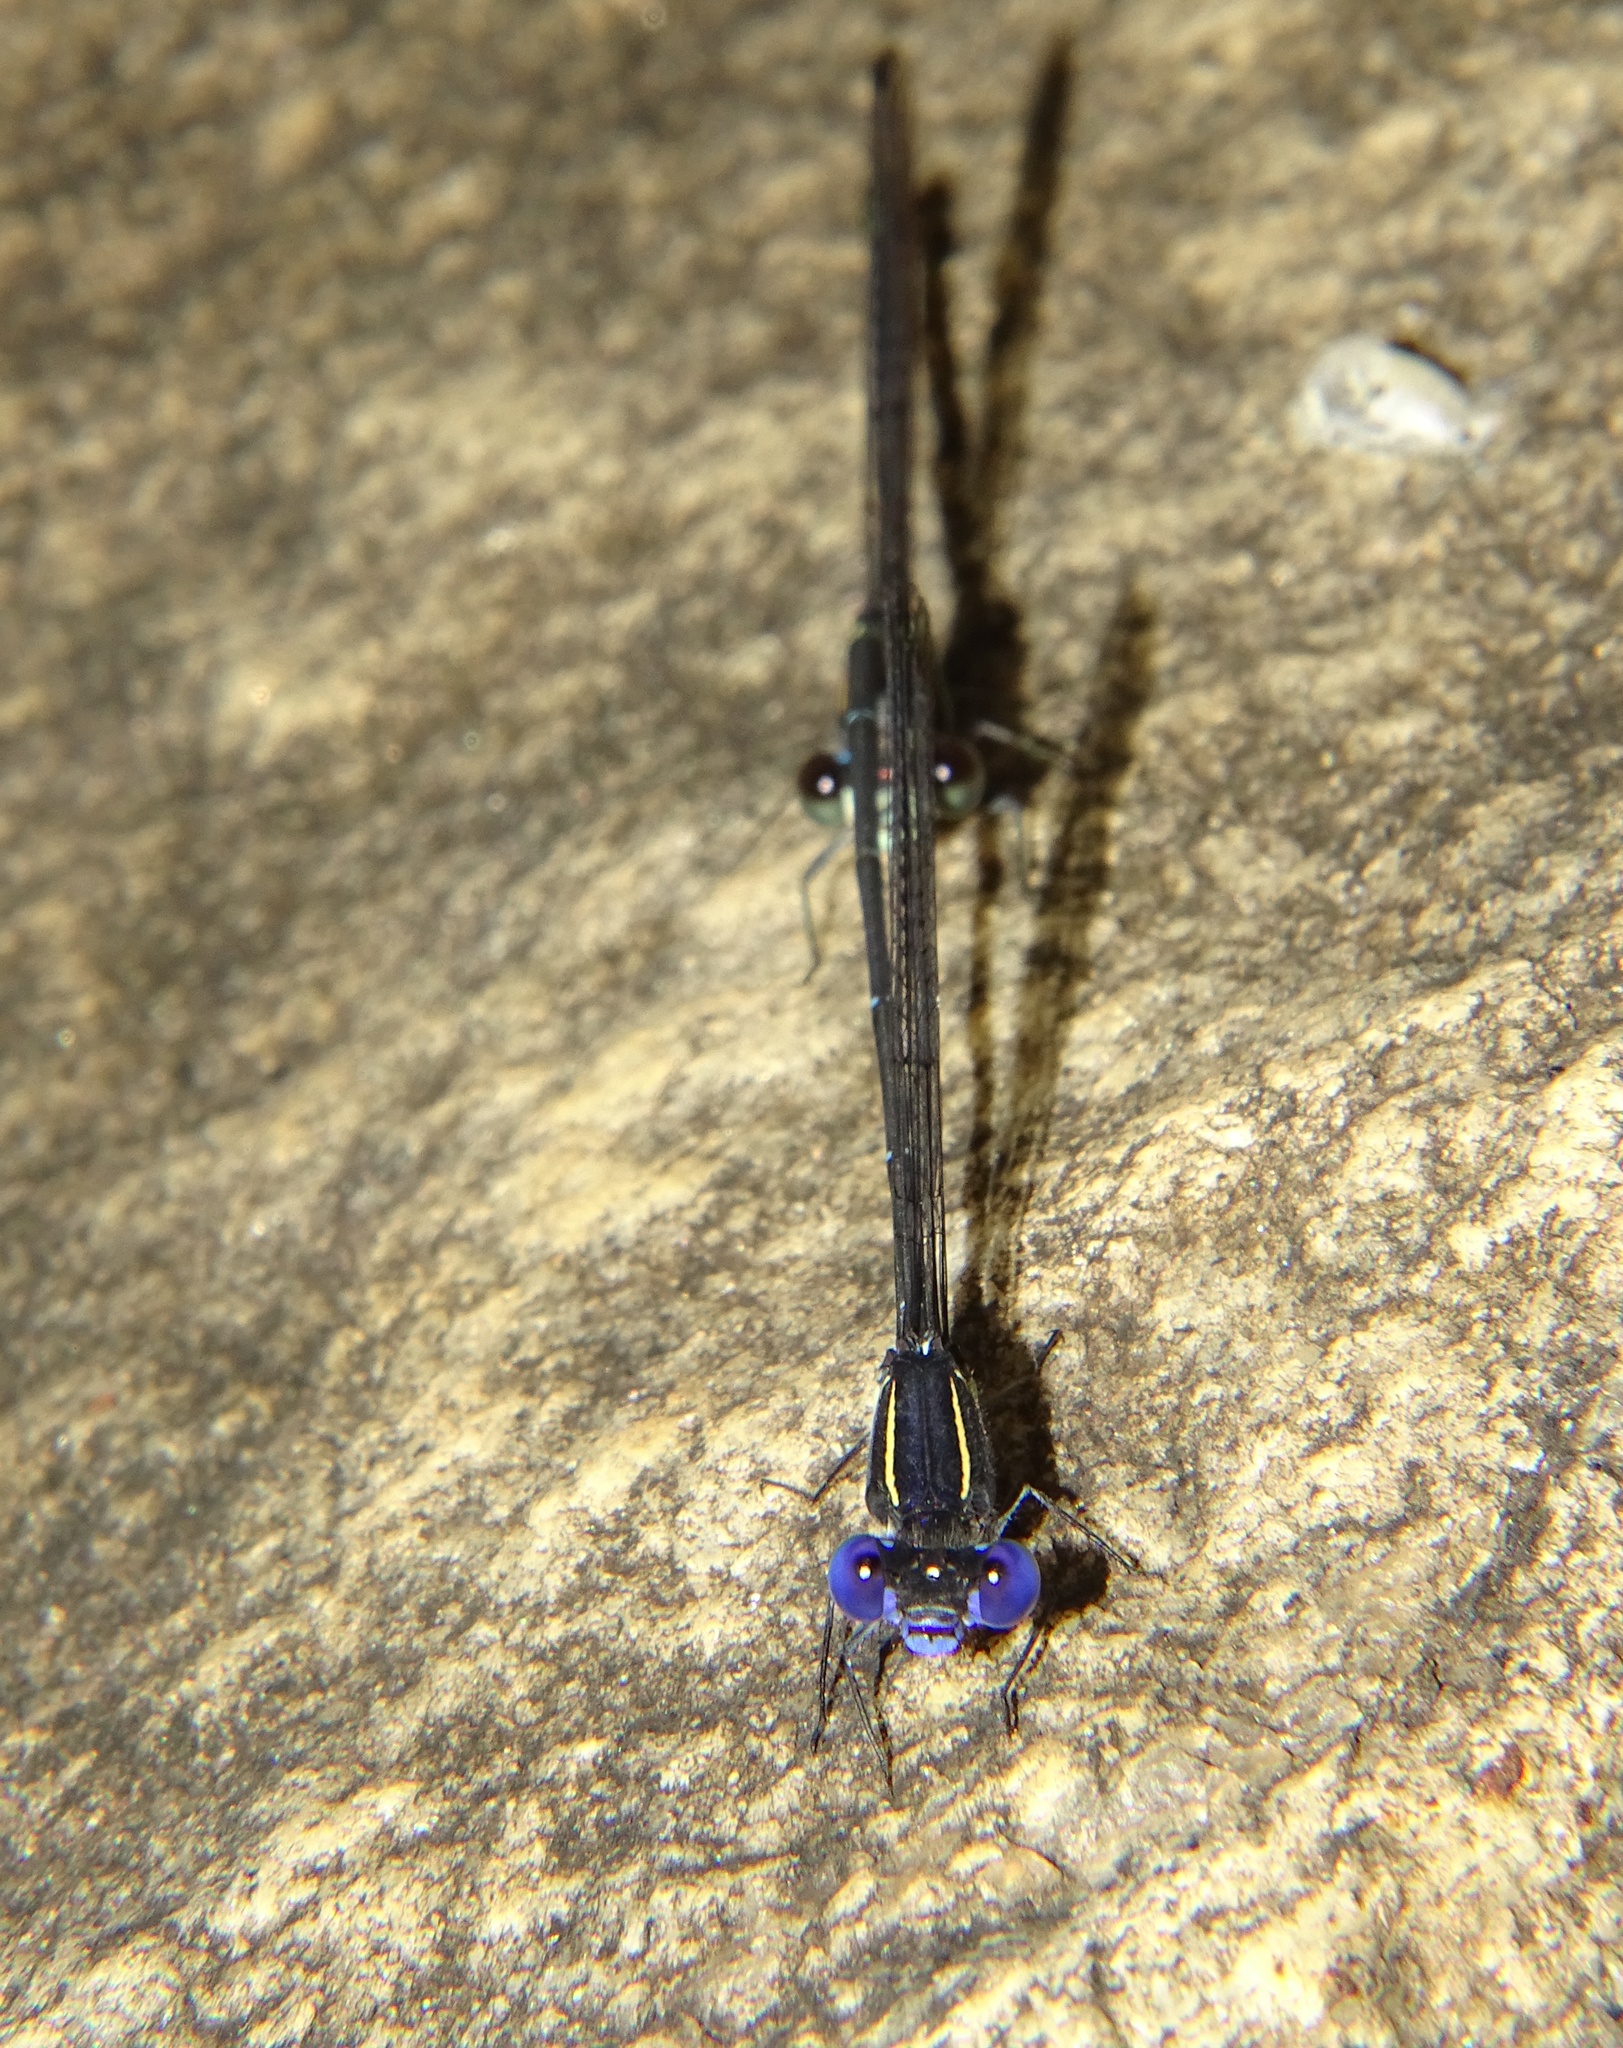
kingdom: Animalia
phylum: Arthropoda
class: Insecta
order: Odonata
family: Coenagrionidae
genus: Argia
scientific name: Argia translata
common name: Dusky dancer
